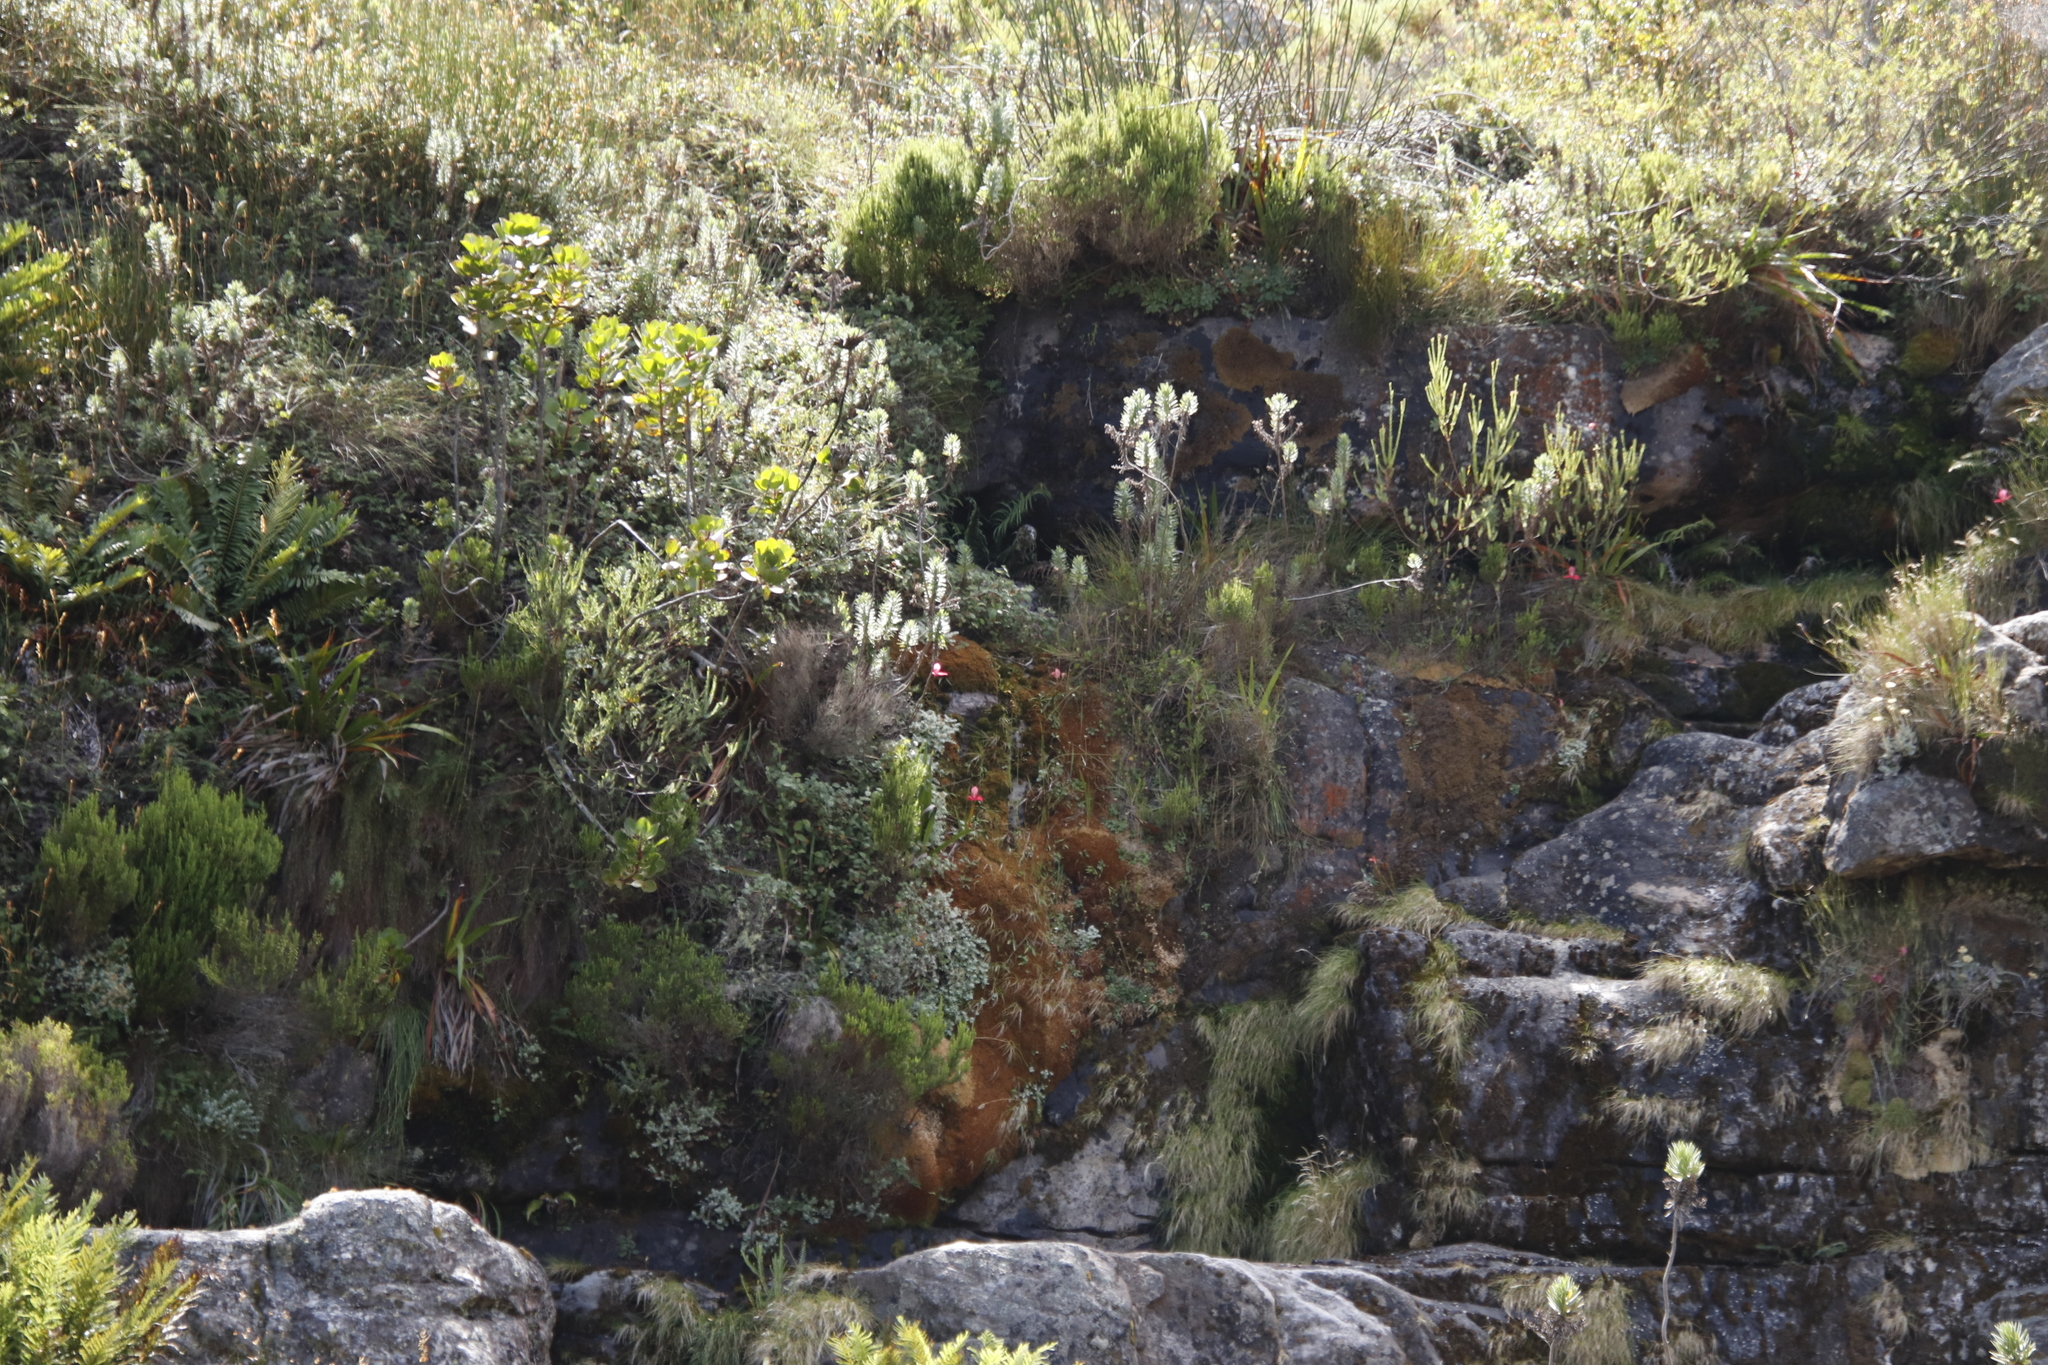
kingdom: Plantae
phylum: Tracheophyta
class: Liliopsida
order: Asparagales
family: Orchidaceae
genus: Disa
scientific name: Disa uniflora
